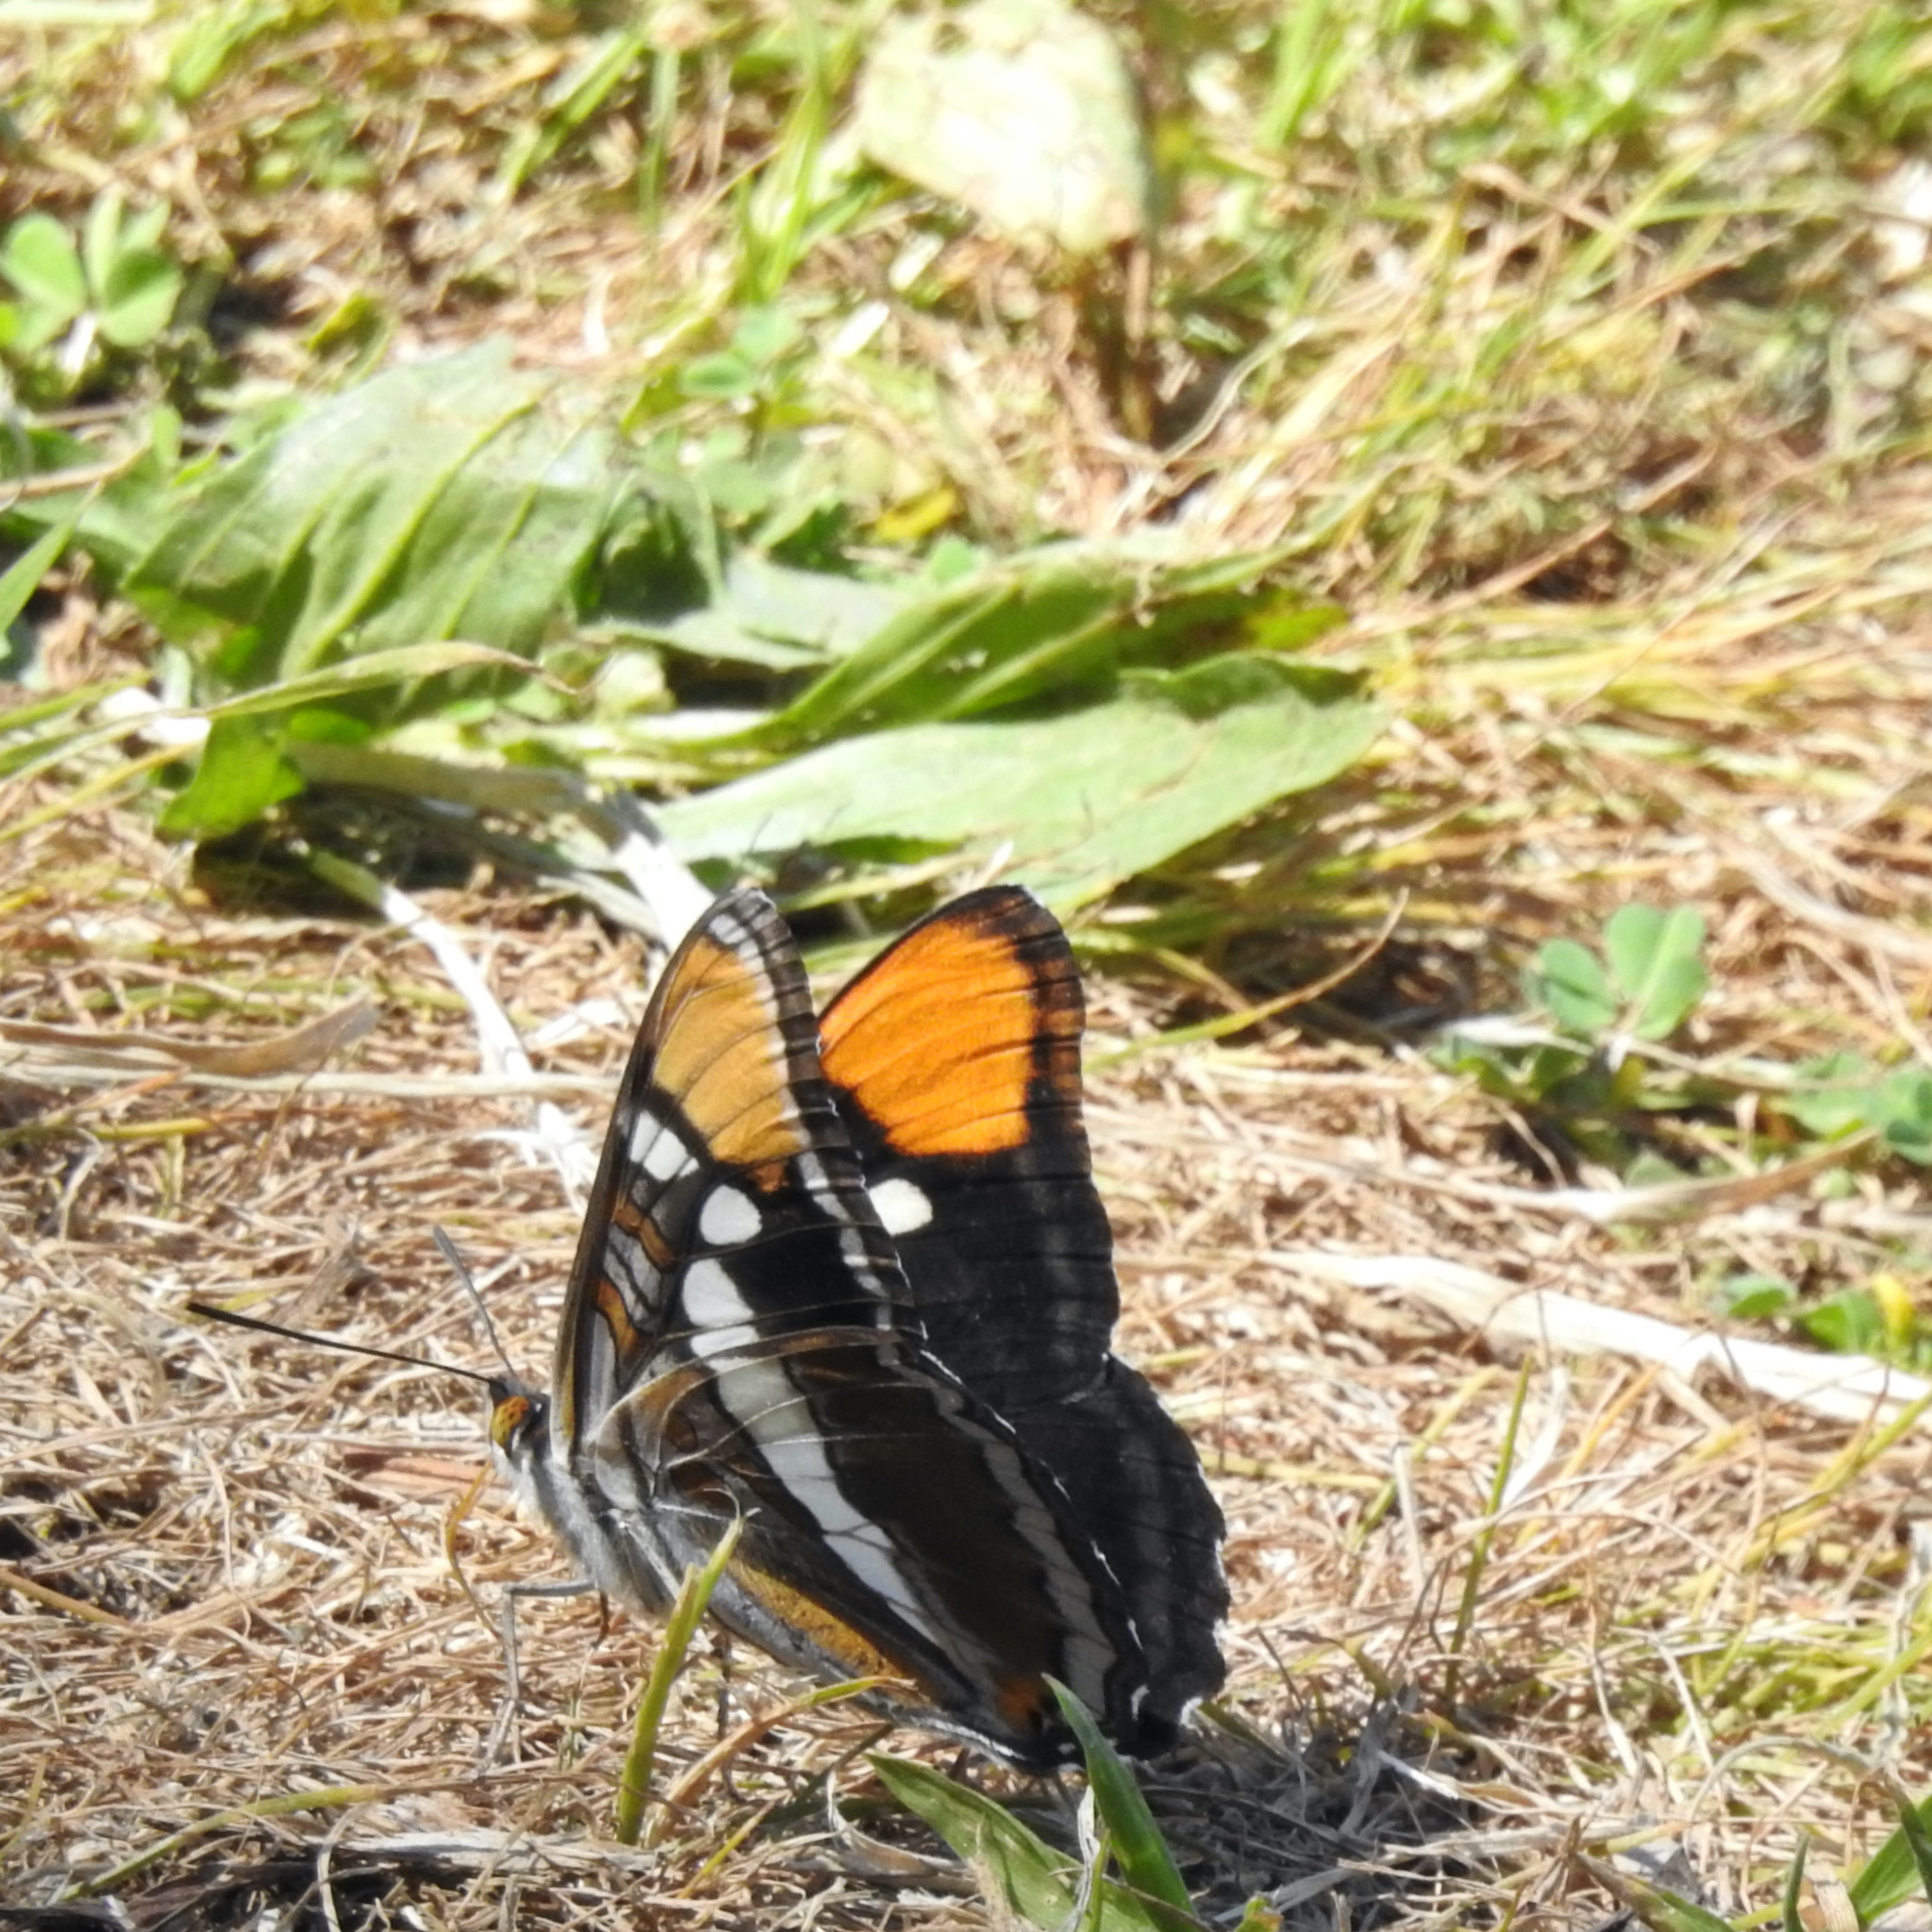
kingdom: Animalia
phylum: Arthropoda
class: Insecta
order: Lepidoptera
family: Nymphalidae
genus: Limenitis
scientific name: Limenitis bredowii
